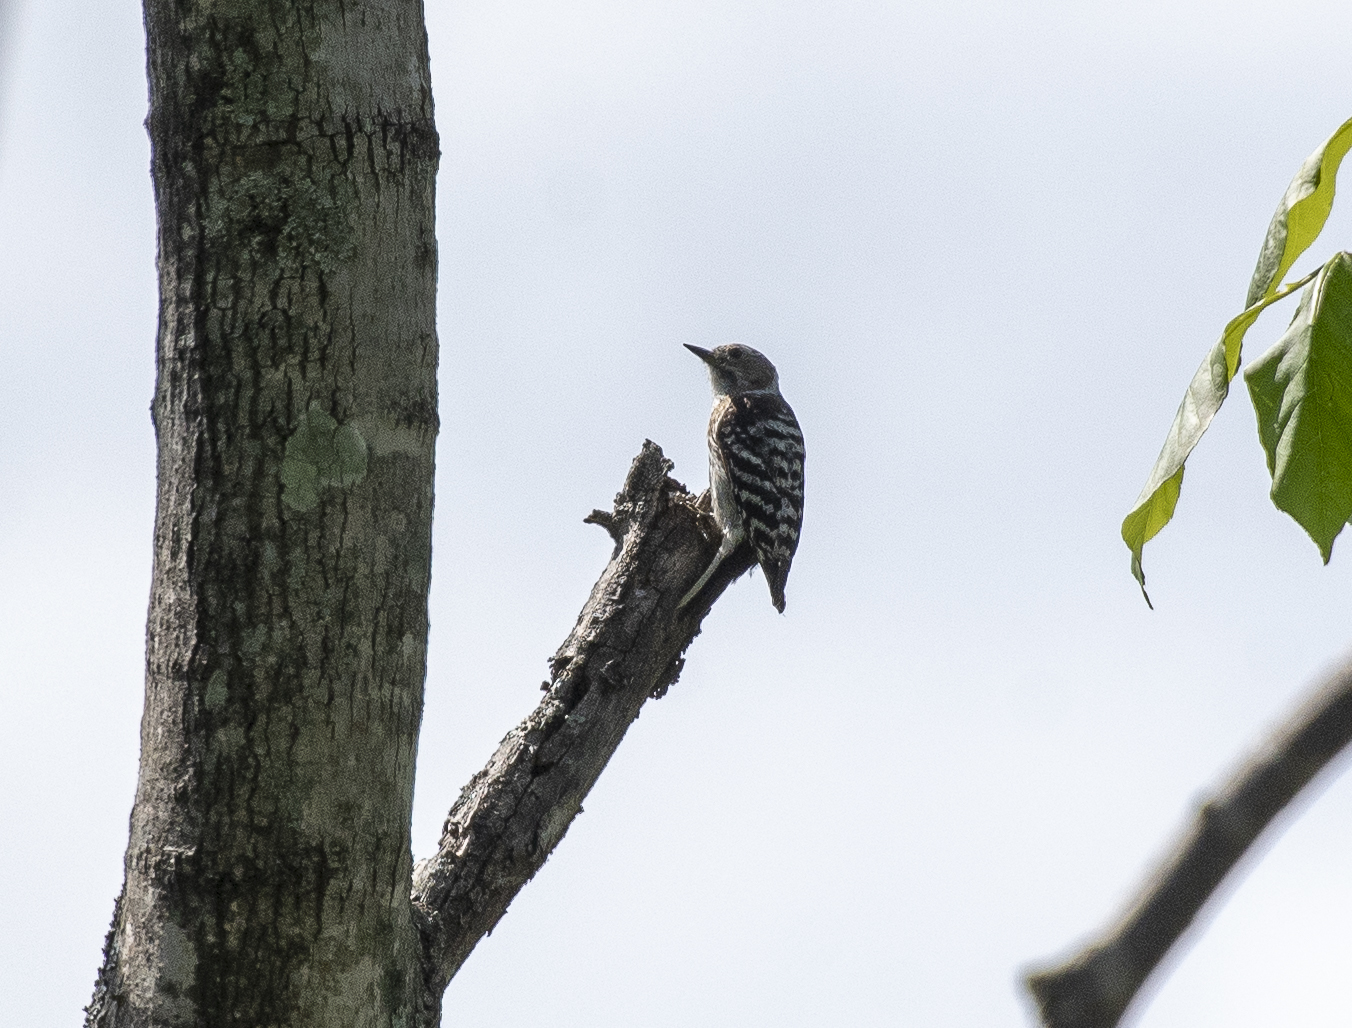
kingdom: Animalia
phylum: Chordata
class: Aves
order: Piciformes
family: Picidae
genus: Yungipicus
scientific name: Yungipicus kizuki
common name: Japanese pygmy woodpecker
